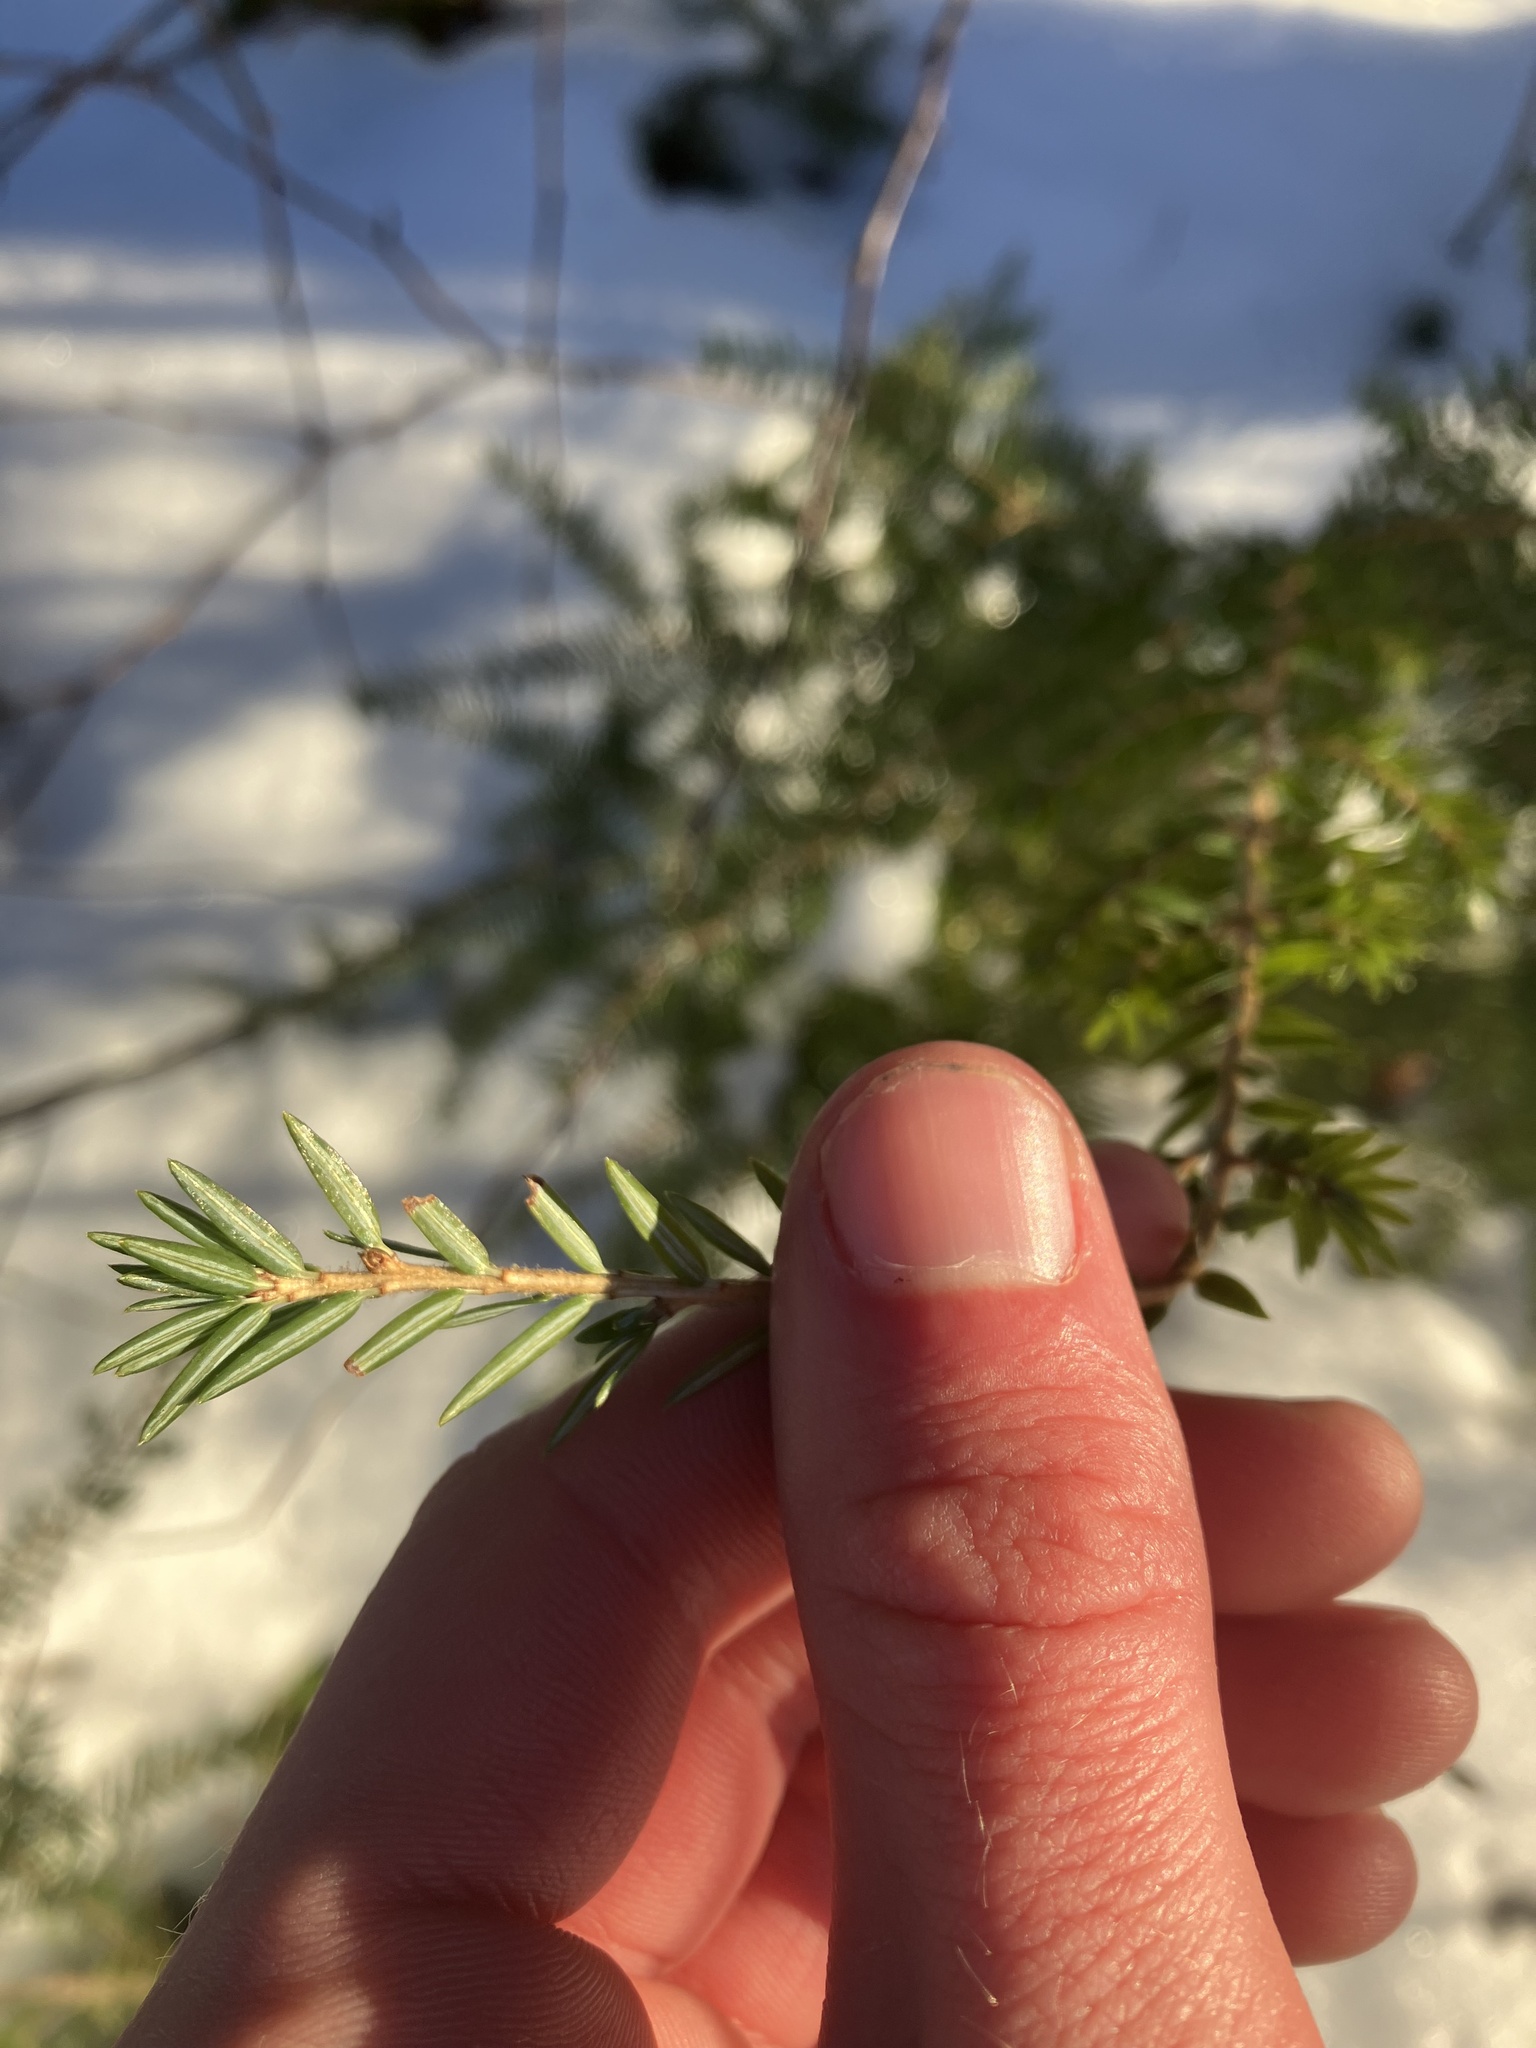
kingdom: Plantae
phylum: Tracheophyta
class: Pinopsida
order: Pinales
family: Pinaceae
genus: Tsuga
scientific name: Tsuga canadensis
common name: Eastern hemlock
